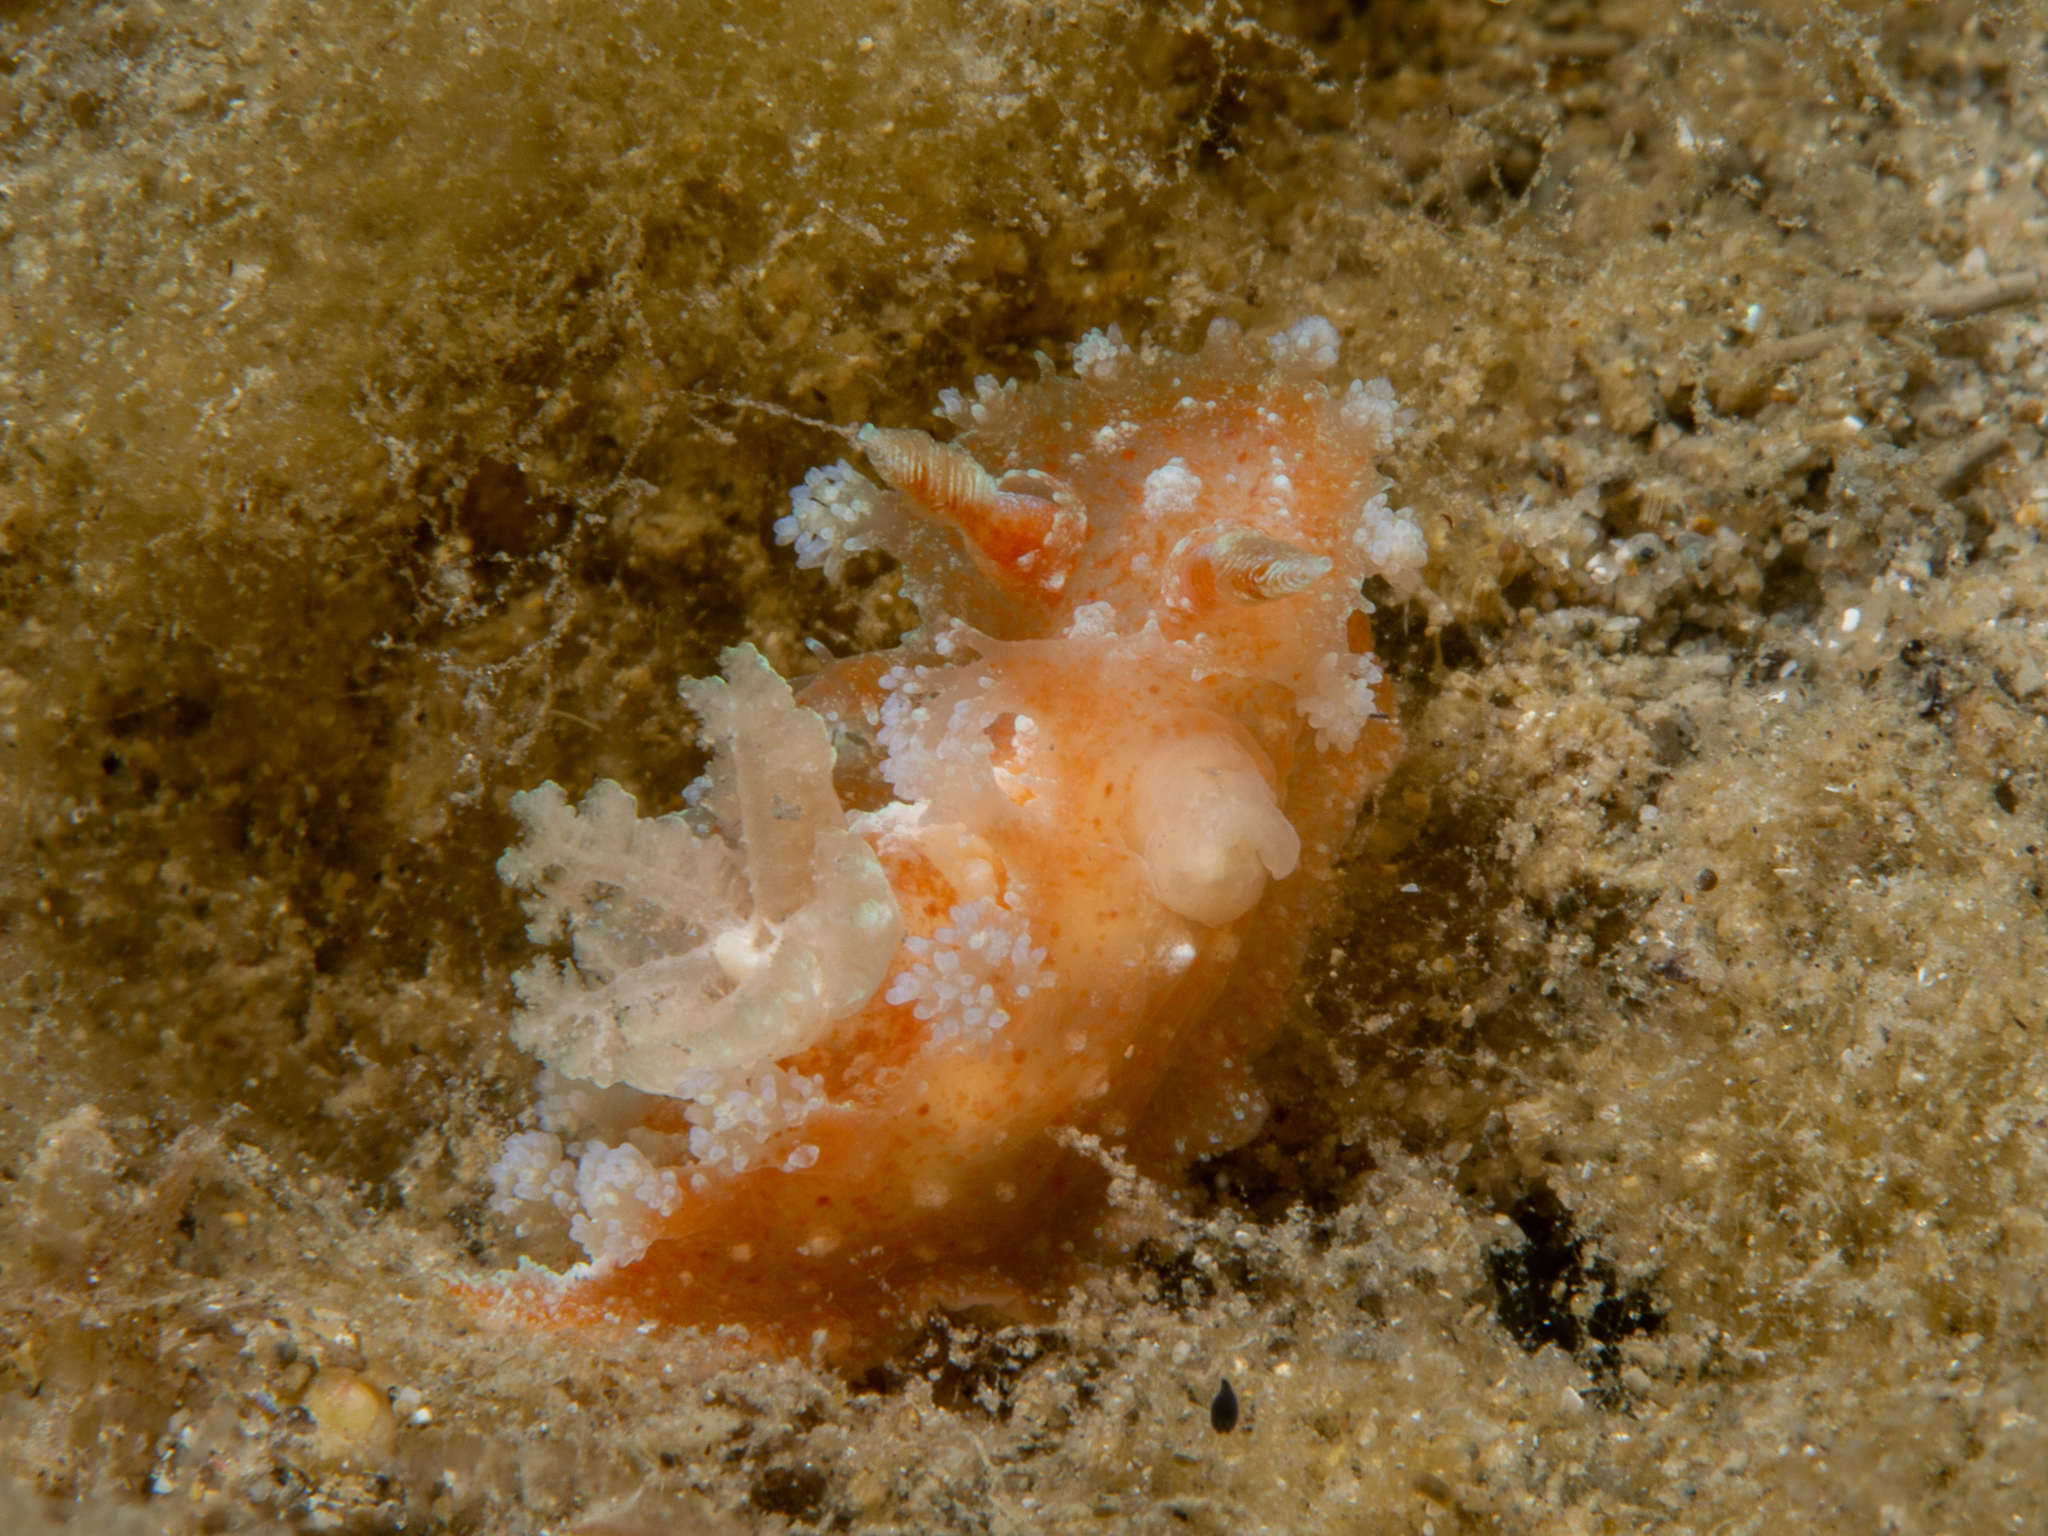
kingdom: Animalia
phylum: Mollusca
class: Gastropoda
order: Nudibranchia
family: Polyceridae
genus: Kaloplocamus
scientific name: Kaloplocamus ramosus
